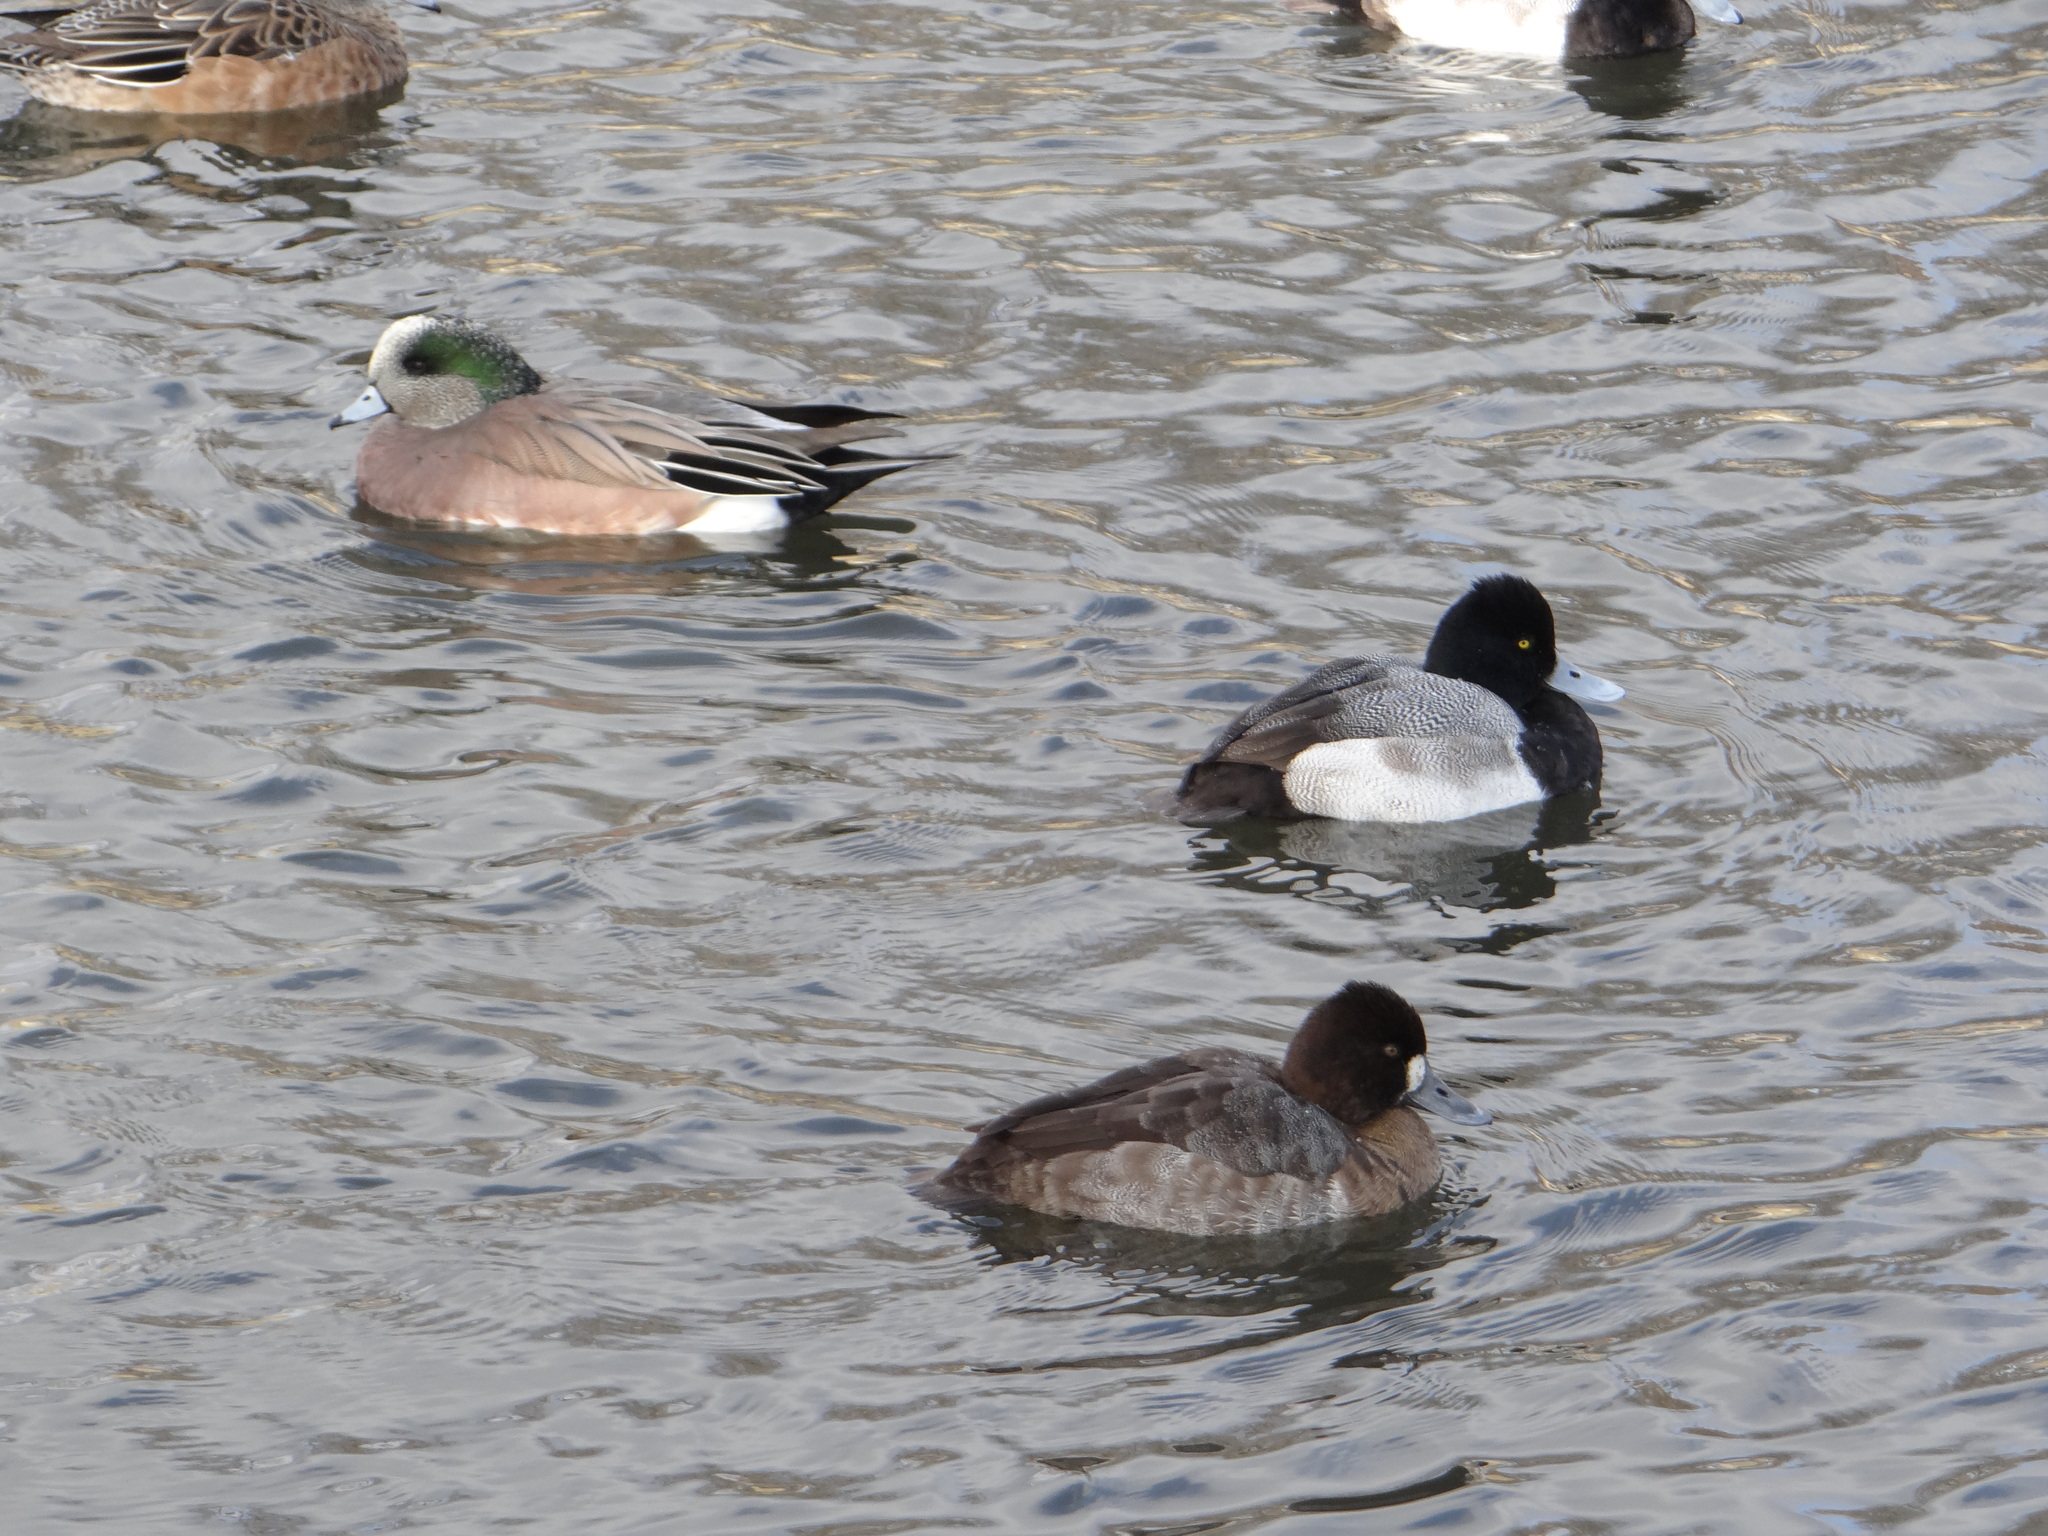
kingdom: Animalia
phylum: Chordata
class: Aves
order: Anseriformes
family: Anatidae
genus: Aythya
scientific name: Aythya affinis
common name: Lesser scaup
